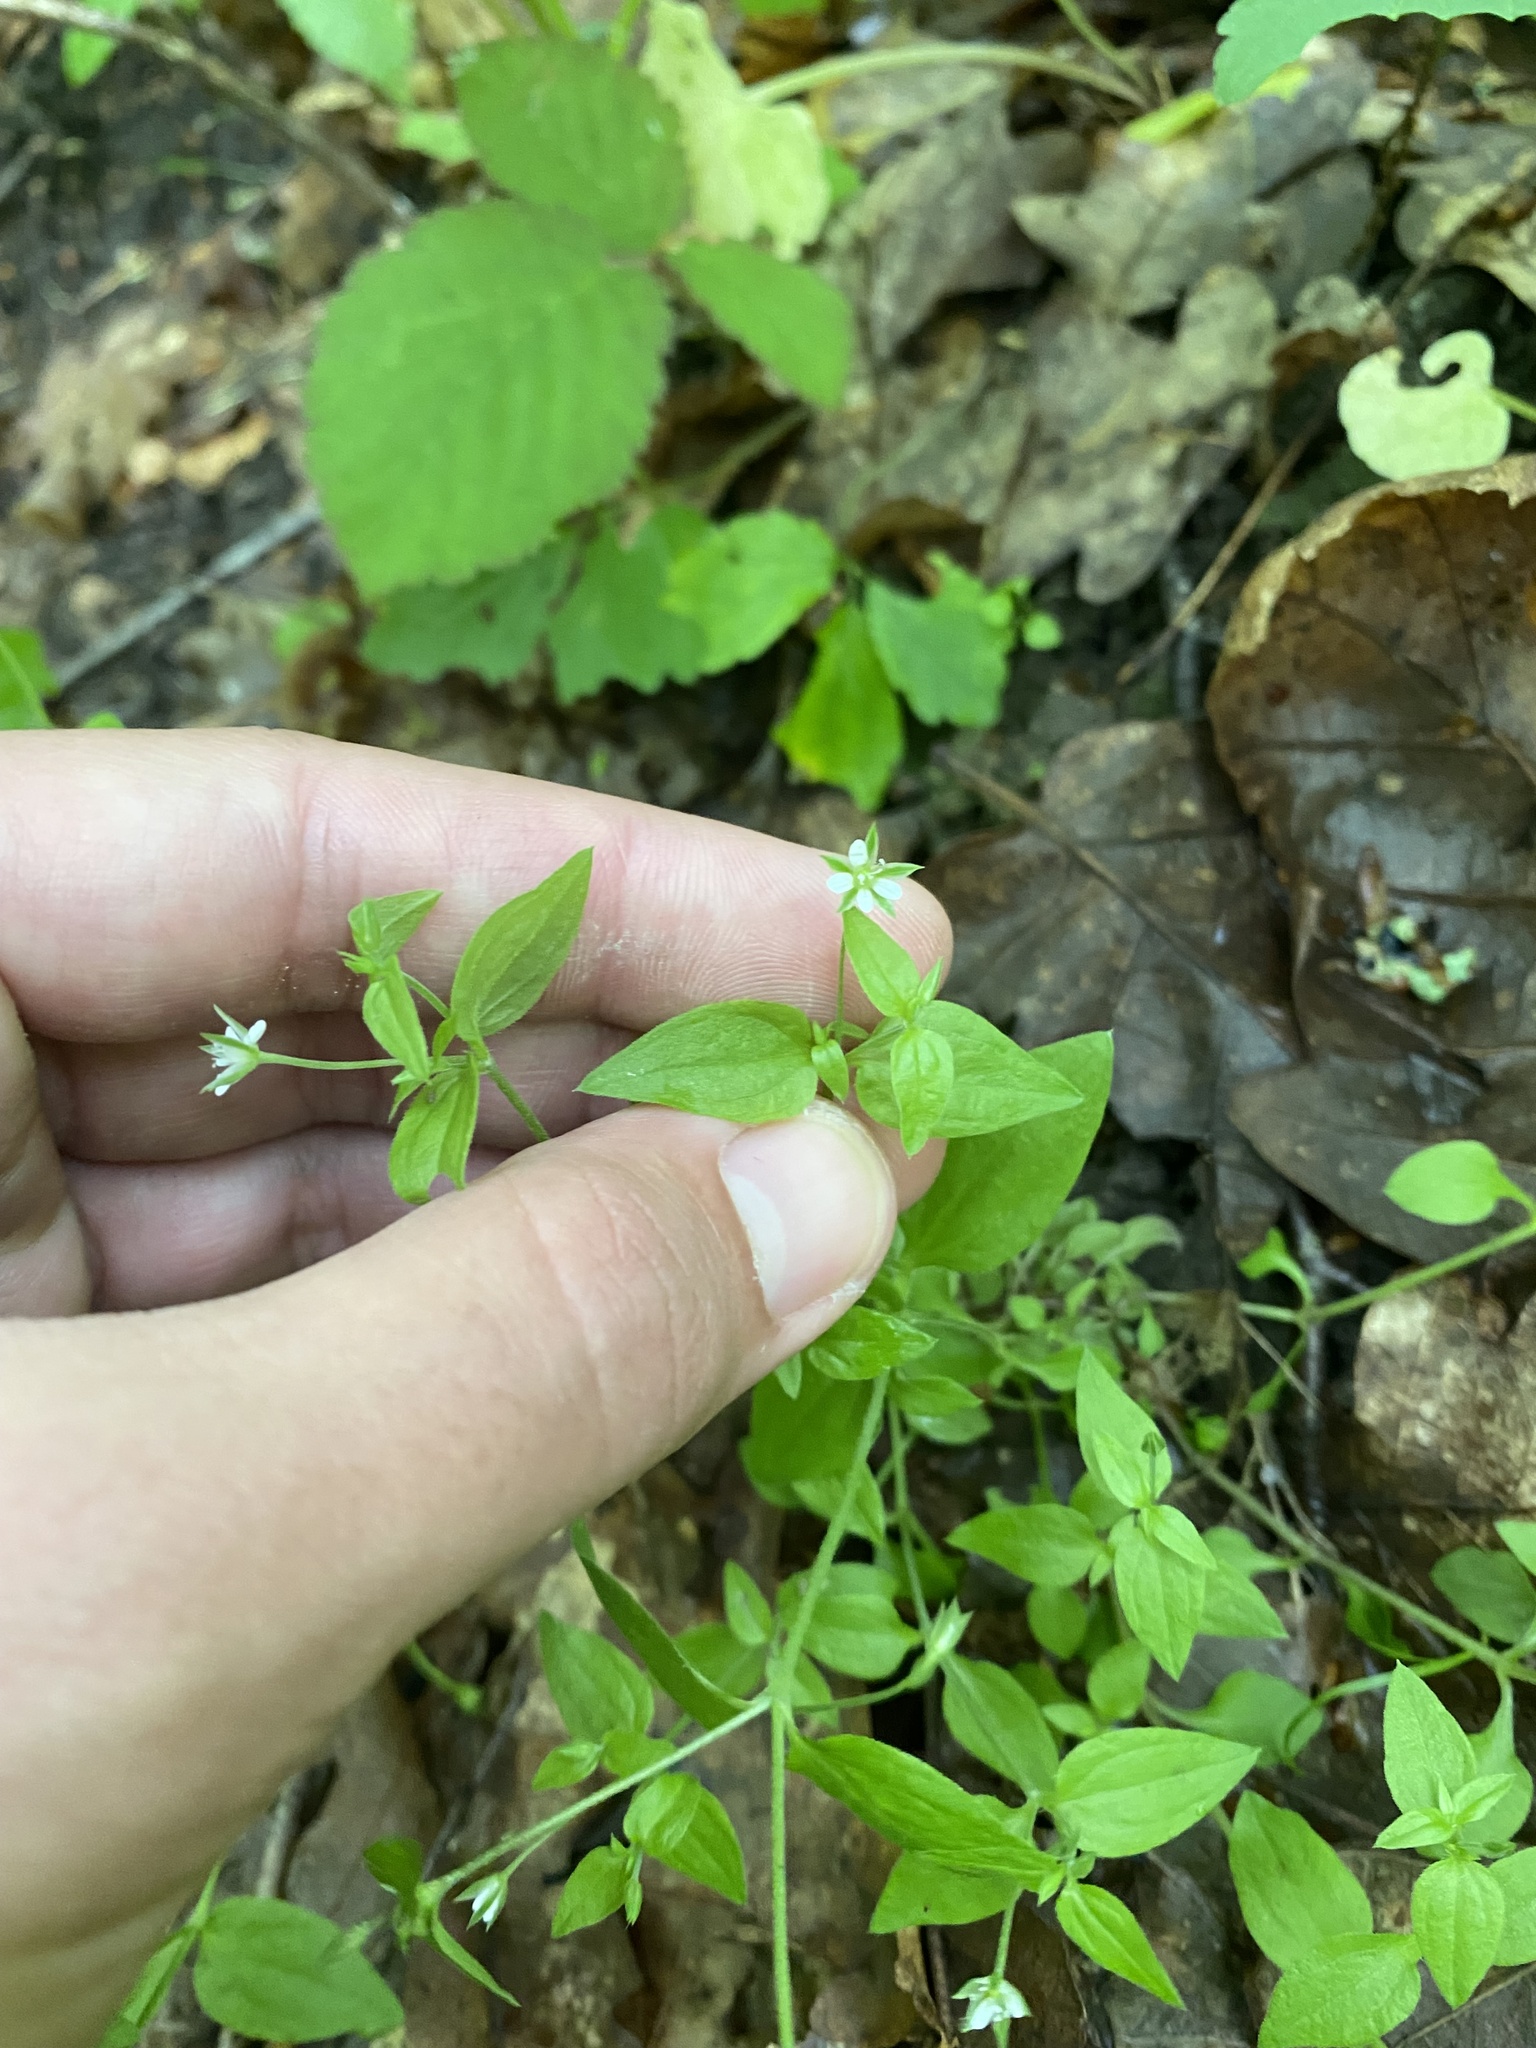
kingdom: Plantae
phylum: Tracheophyta
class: Magnoliopsida
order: Caryophyllales
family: Caryophyllaceae
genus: Moehringia
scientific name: Moehringia trinervia
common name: Three-nerved sandwort
